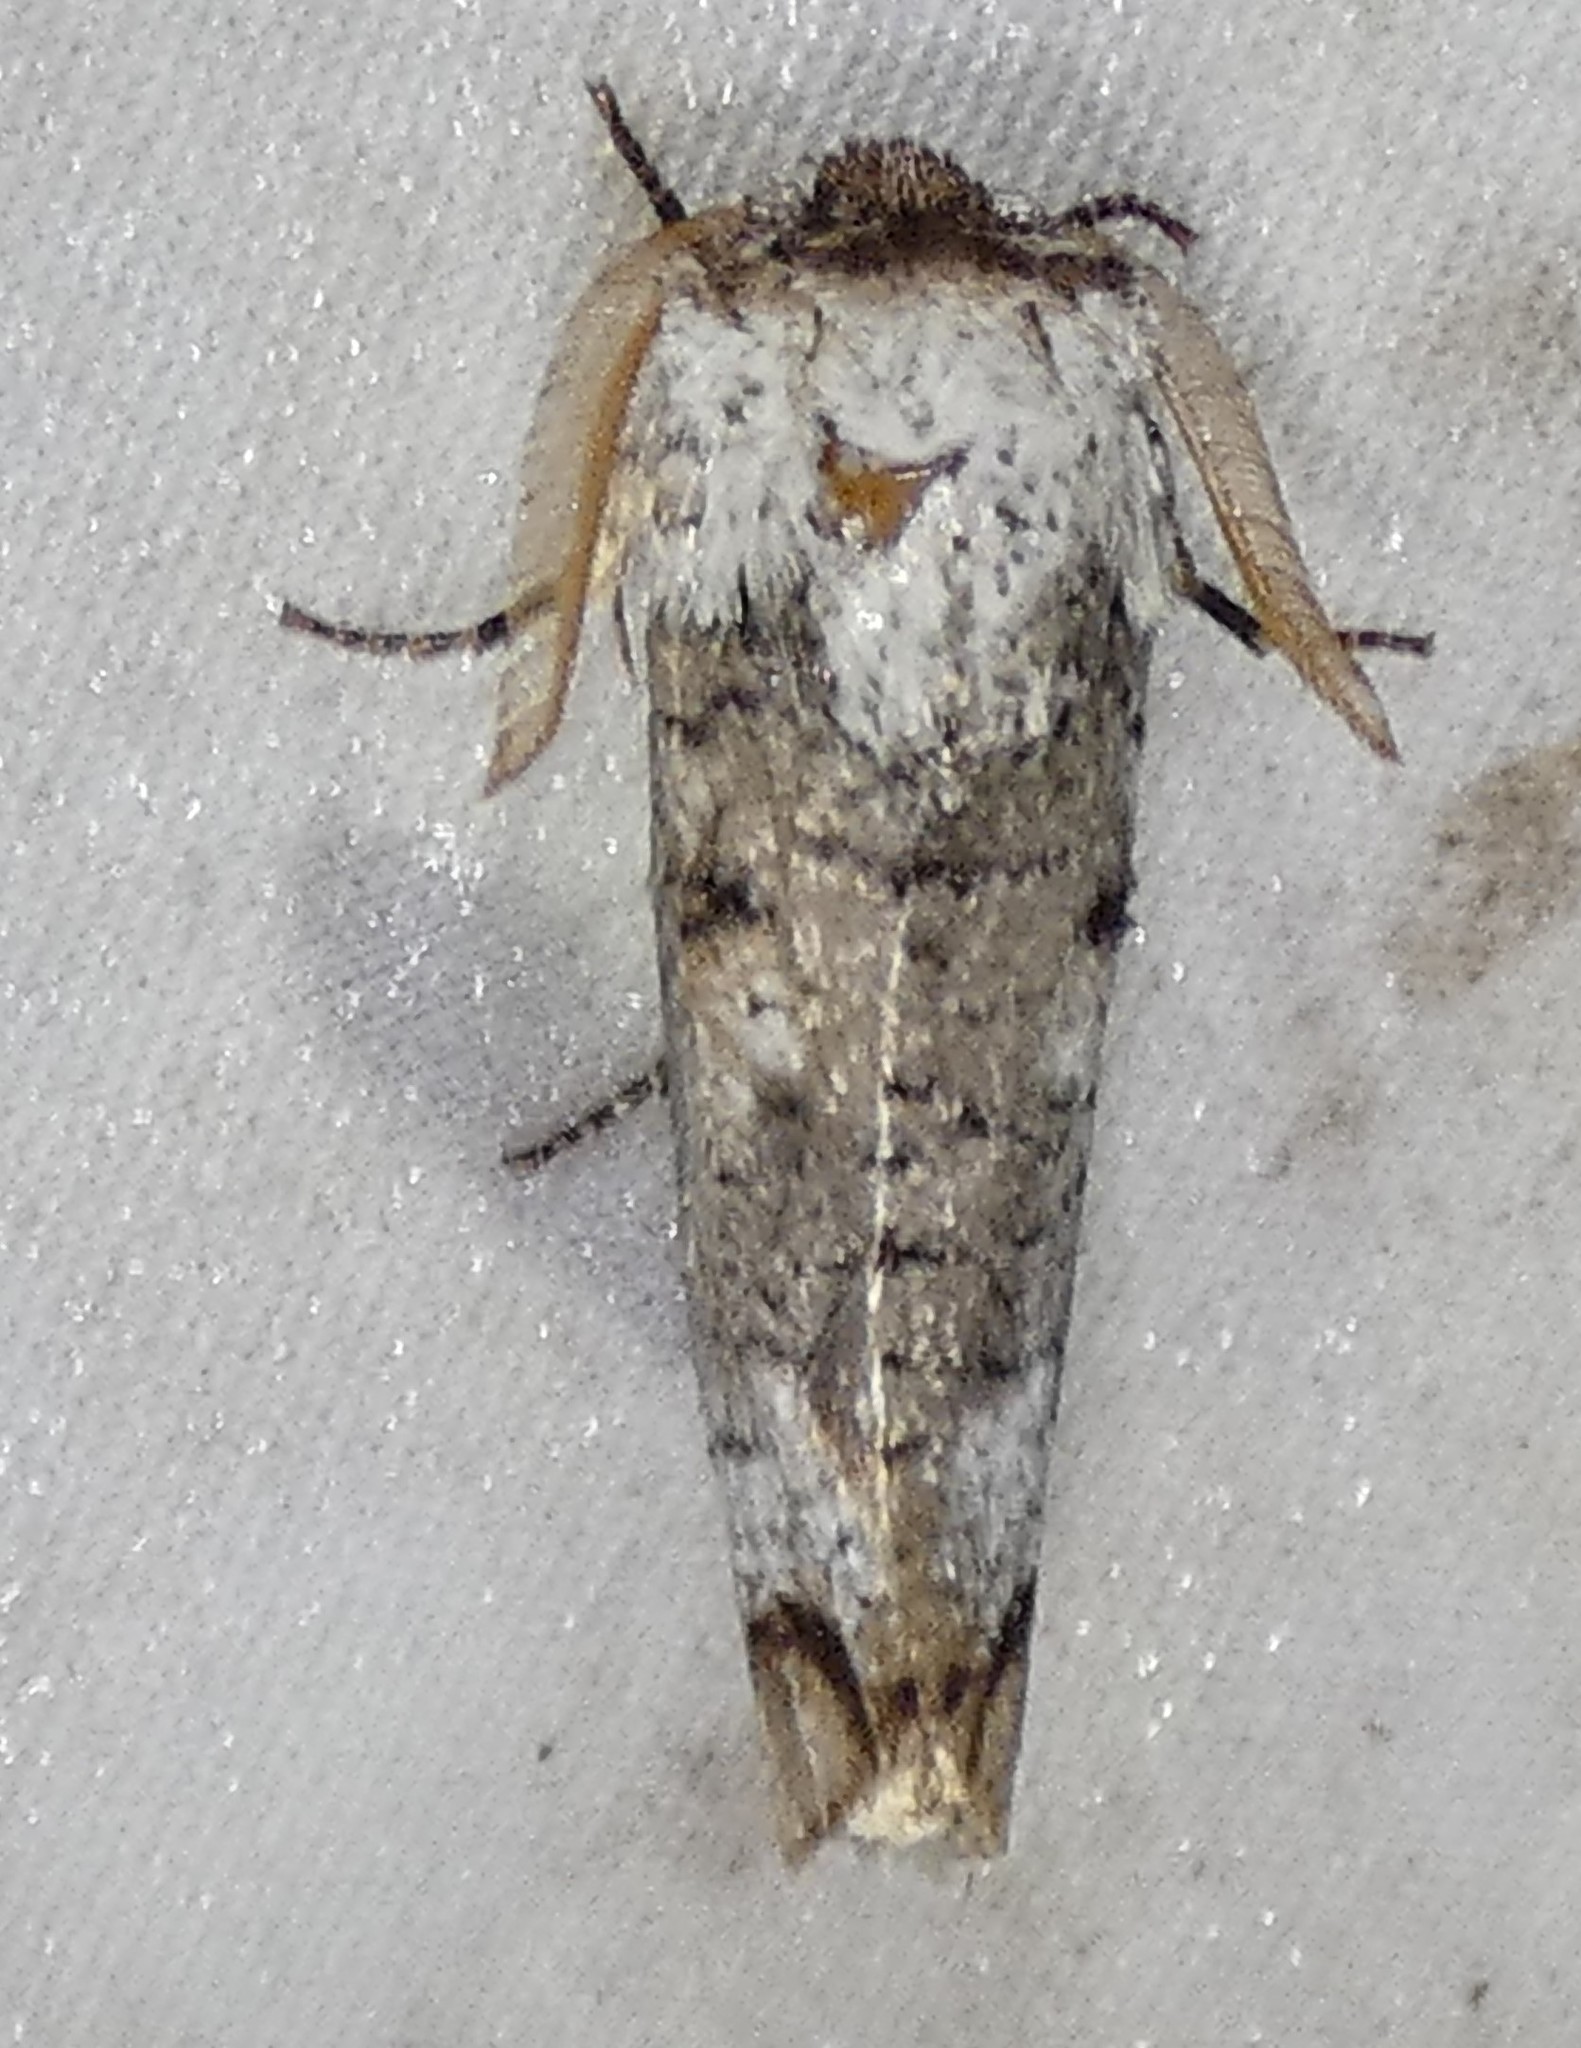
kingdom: Animalia
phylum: Arthropoda
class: Insecta
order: Lepidoptera
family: Cossidae
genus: Cossula
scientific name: Cossula magnifica
